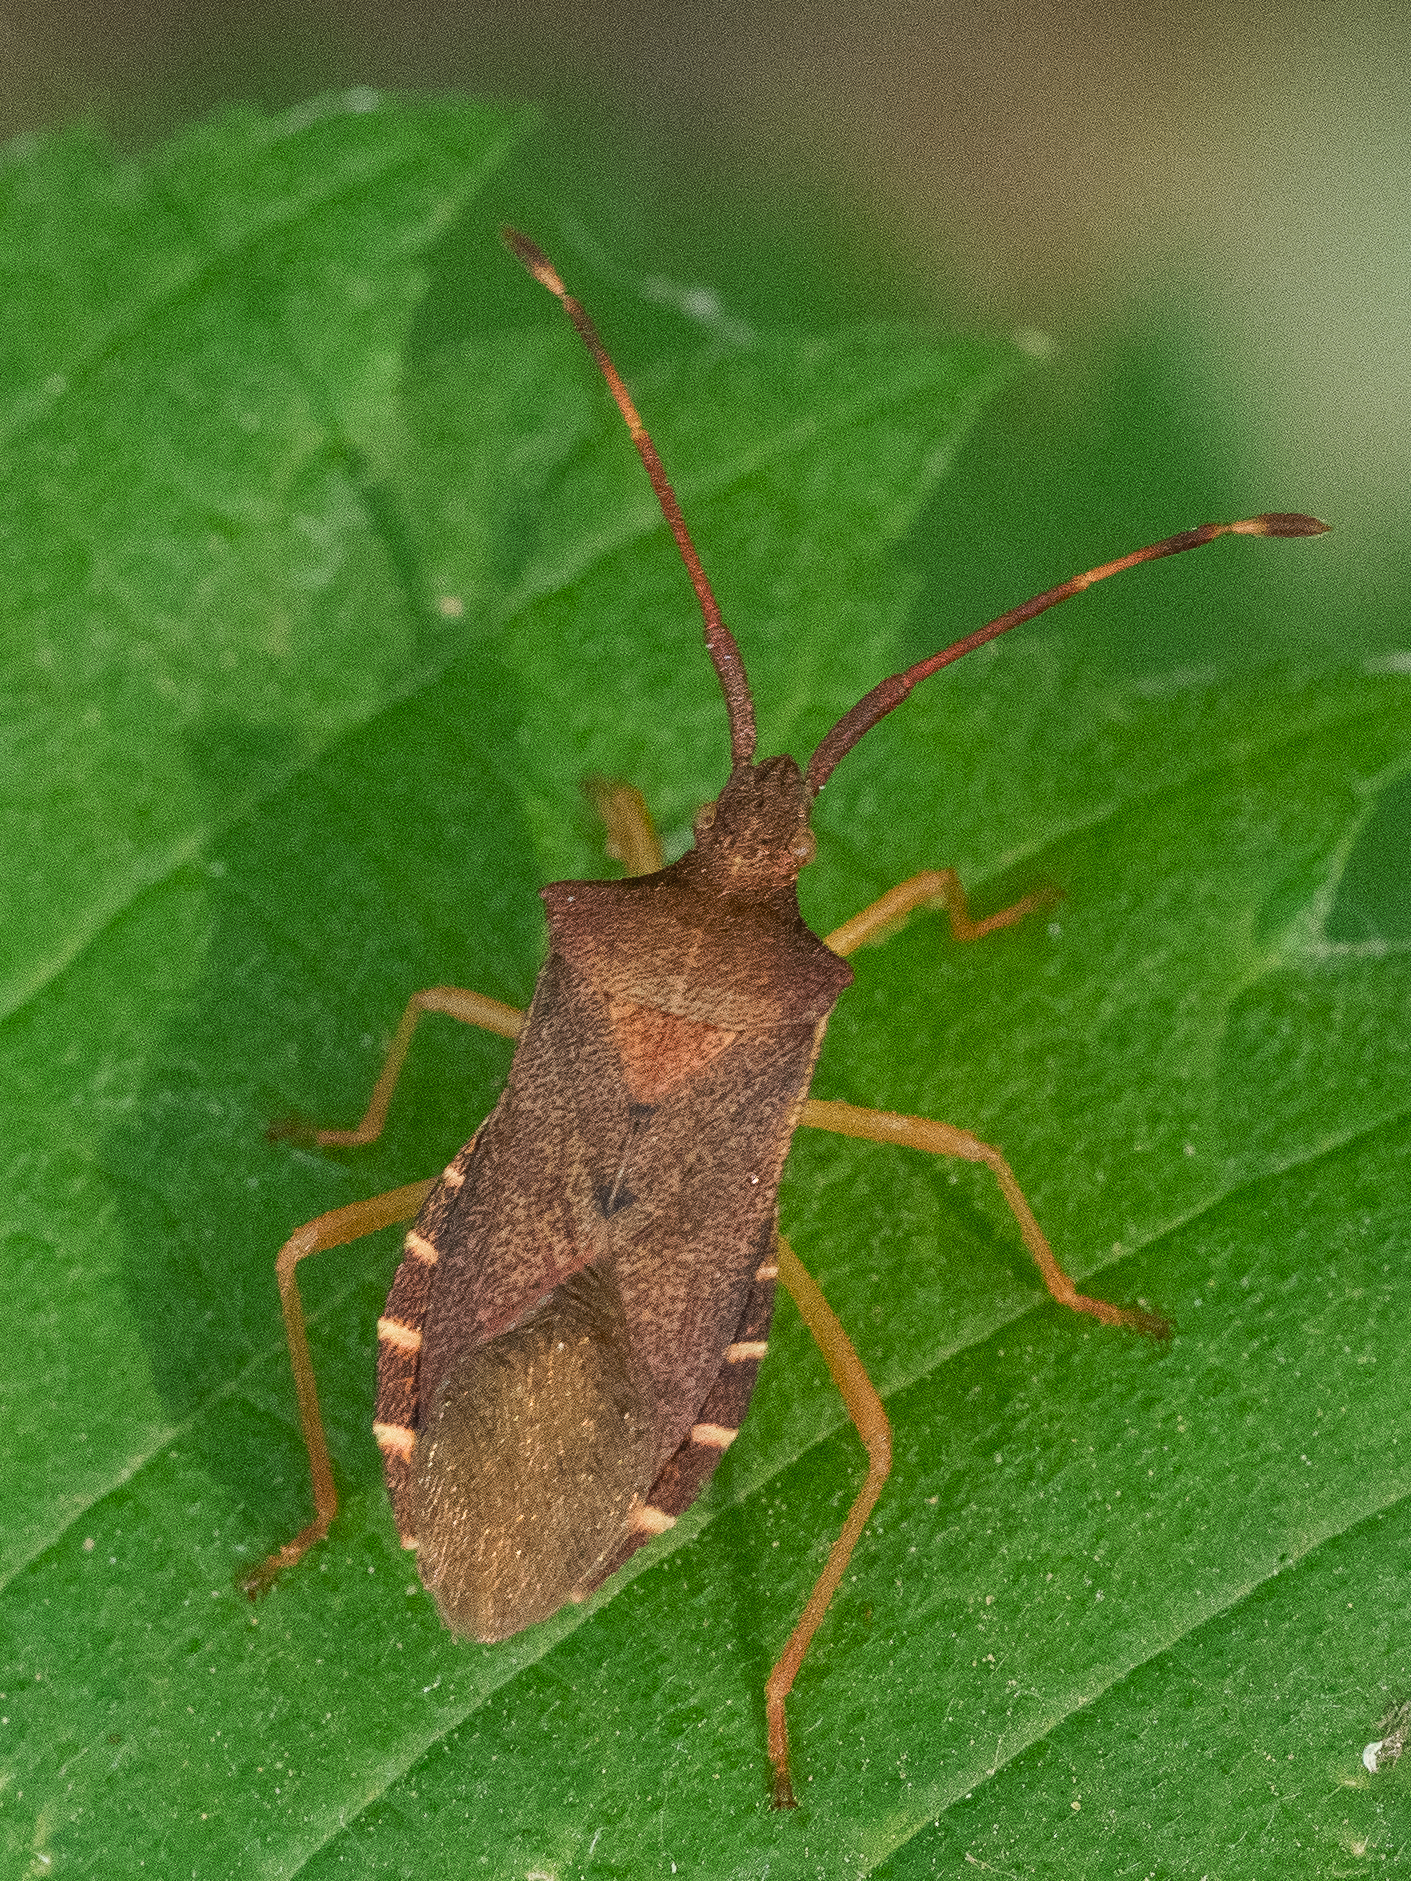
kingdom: Animalia
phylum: Arthropoda
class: Insecta
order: Hemiptera
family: Coreidae
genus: Gonocerus
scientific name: Gonocerus acuteangulatus
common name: Box bug
